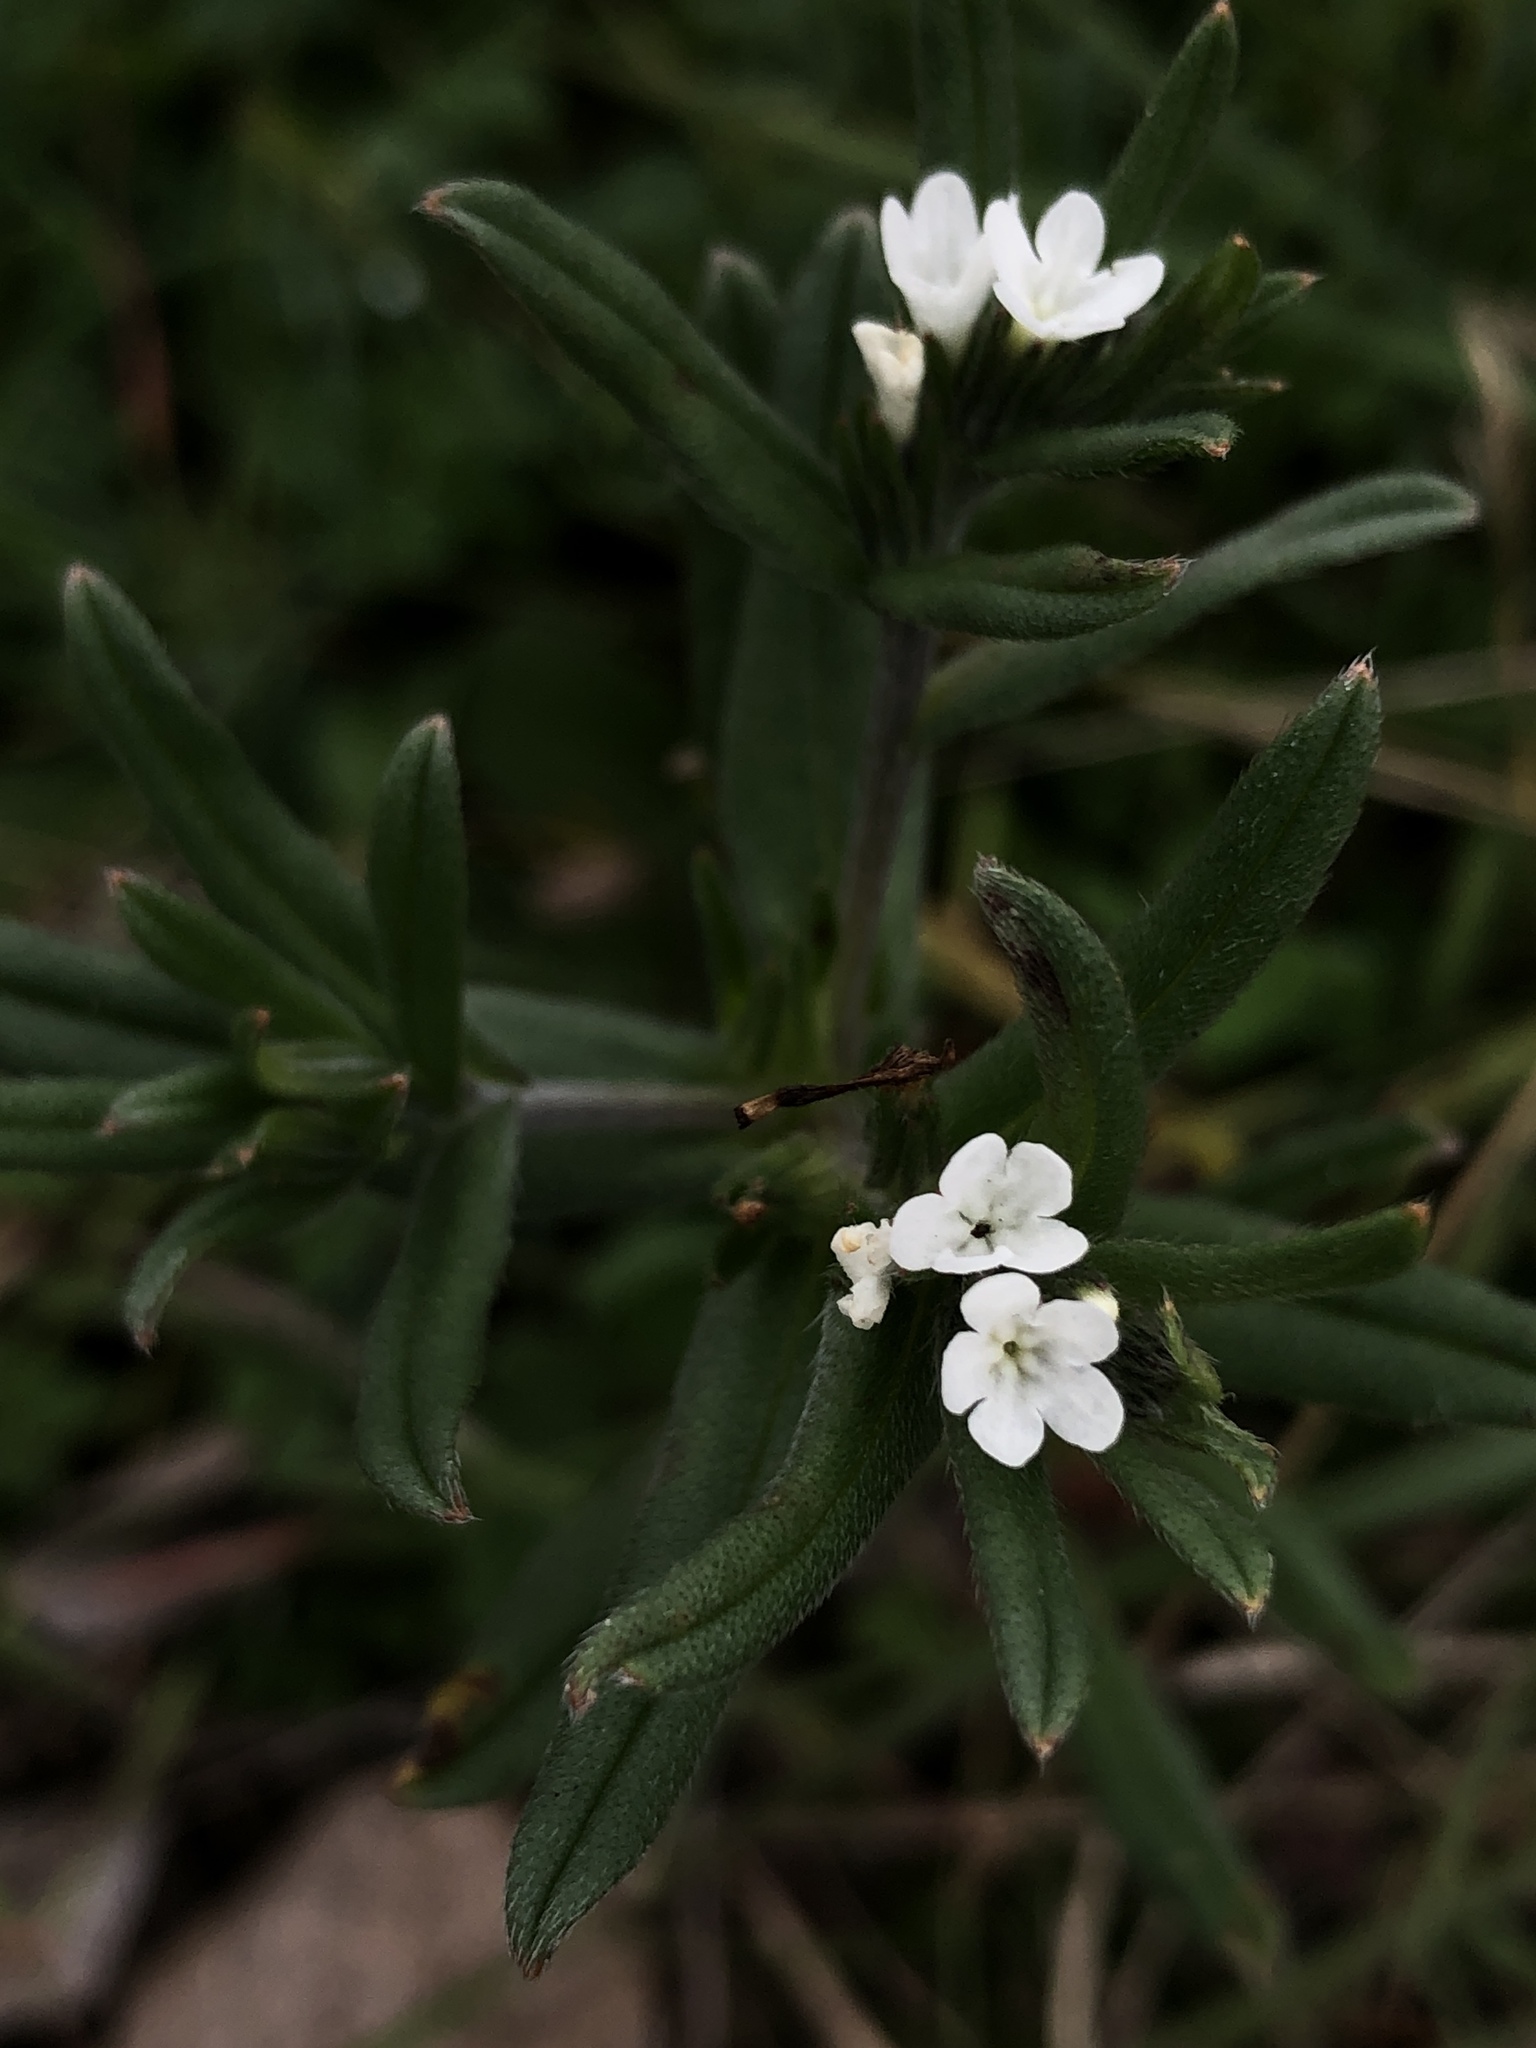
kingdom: Plantae
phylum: Tracheophyta
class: Magnoliopsida
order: Boraginales
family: Boraginaceae
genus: Buglossoides
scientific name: Buglossoides arvensis
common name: Corn gromwell
